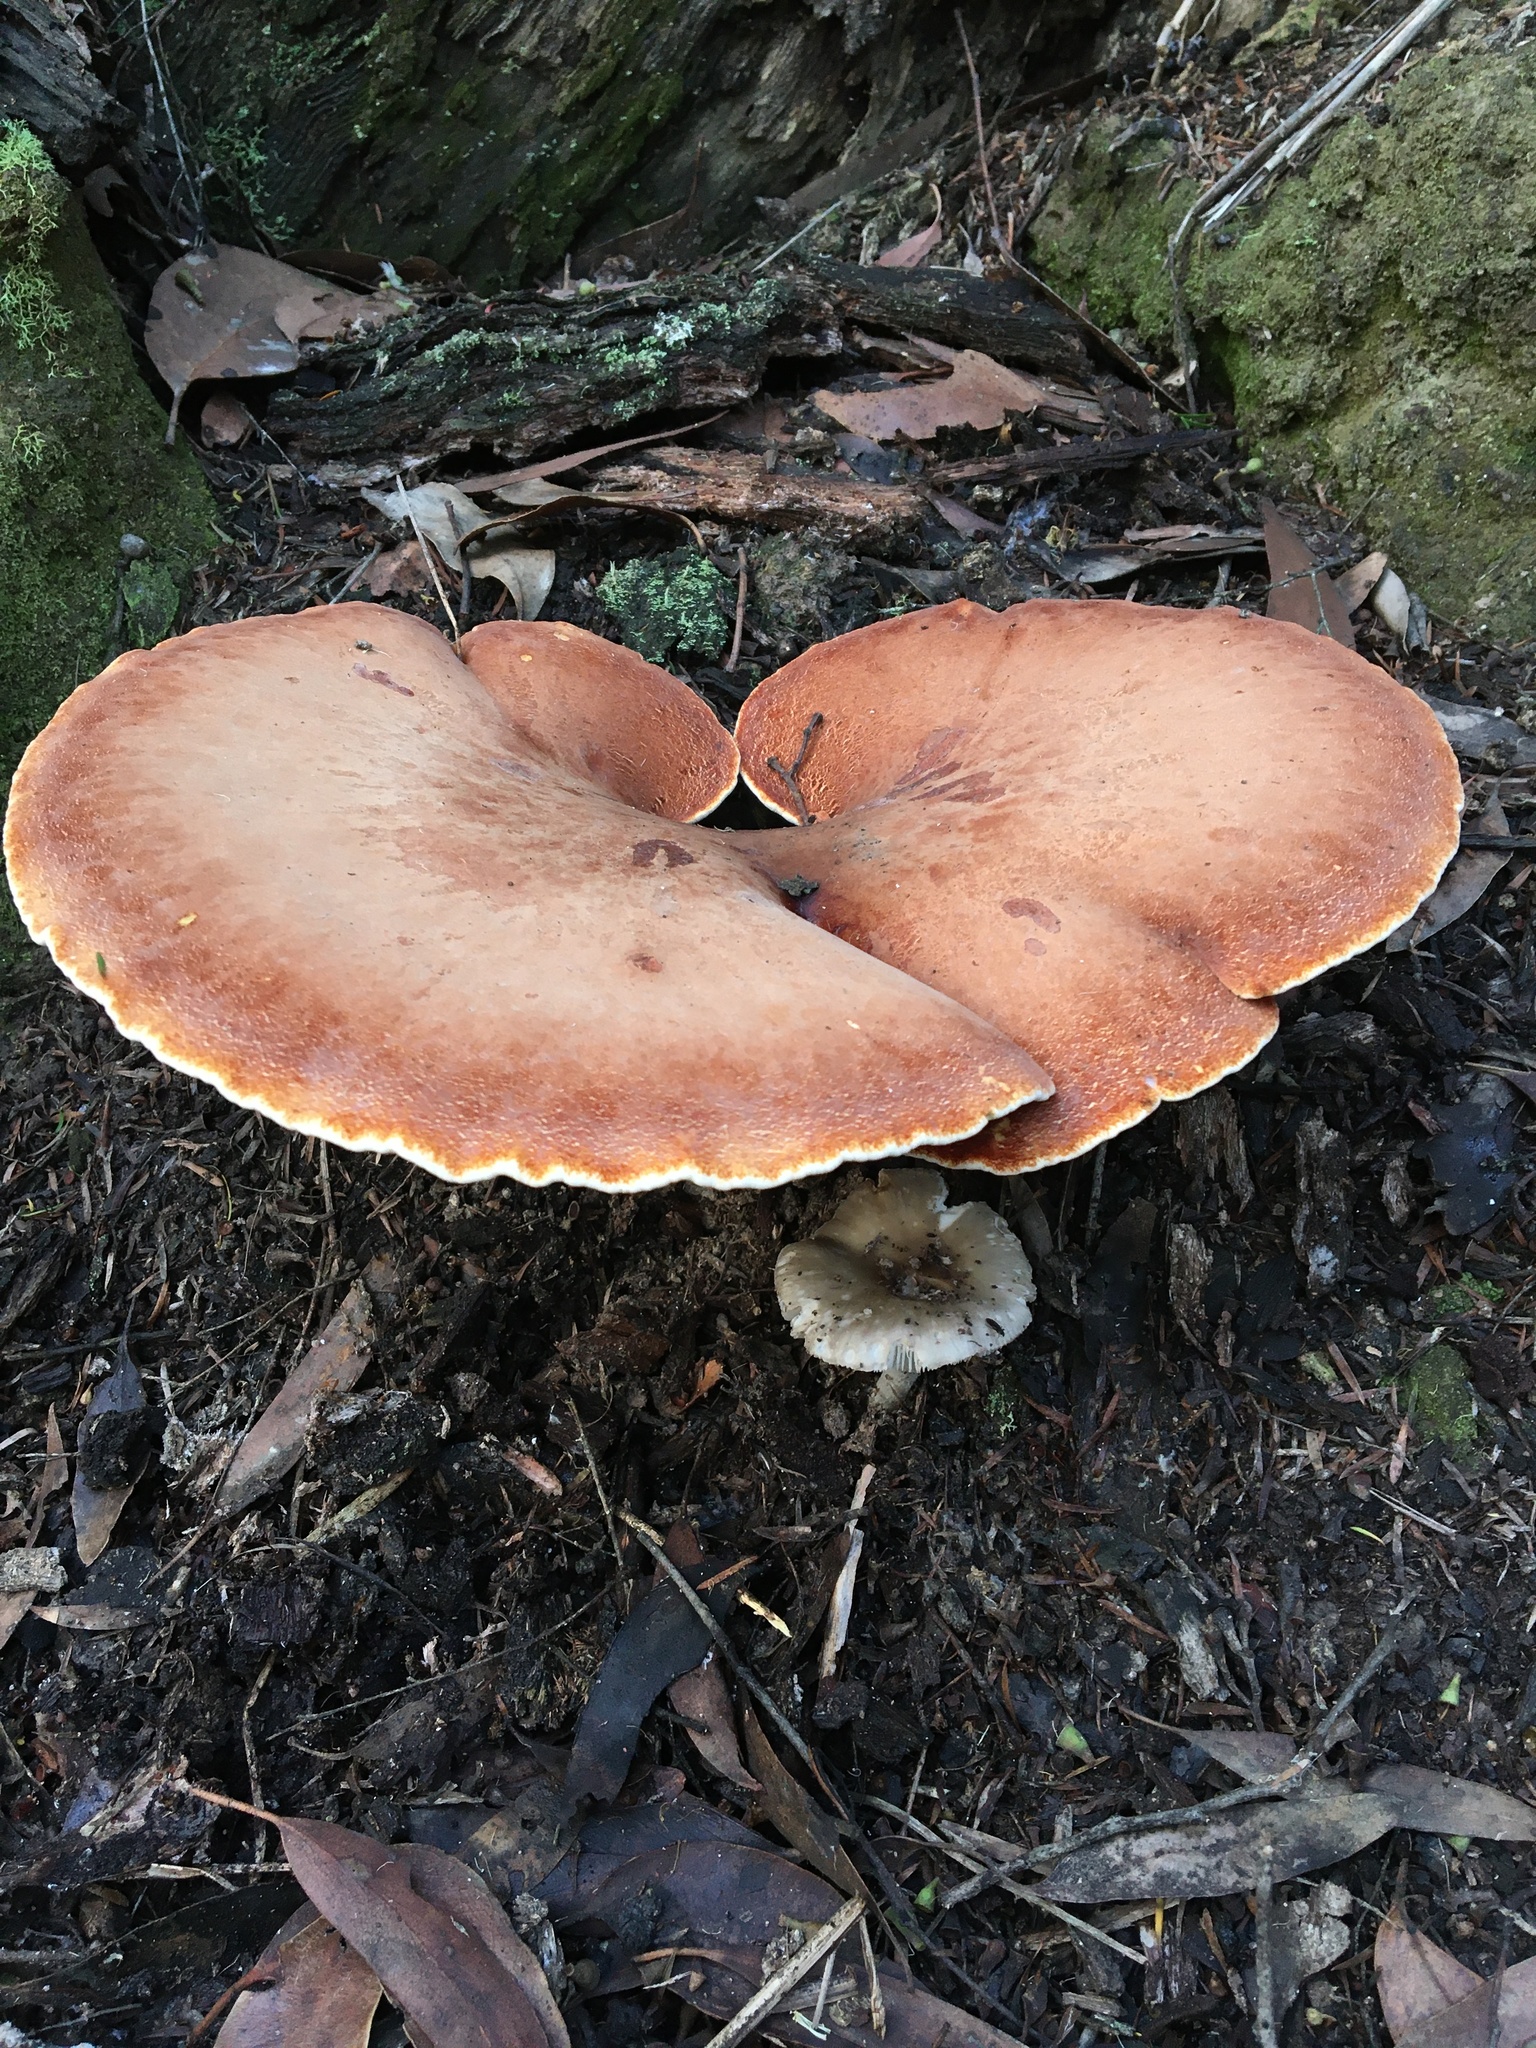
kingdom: Fungi
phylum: Basidiomycota
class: Agaricomycetes
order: Polyporales
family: Fomitopsidaceae
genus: Fomitopsis
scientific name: Fomitopsis
